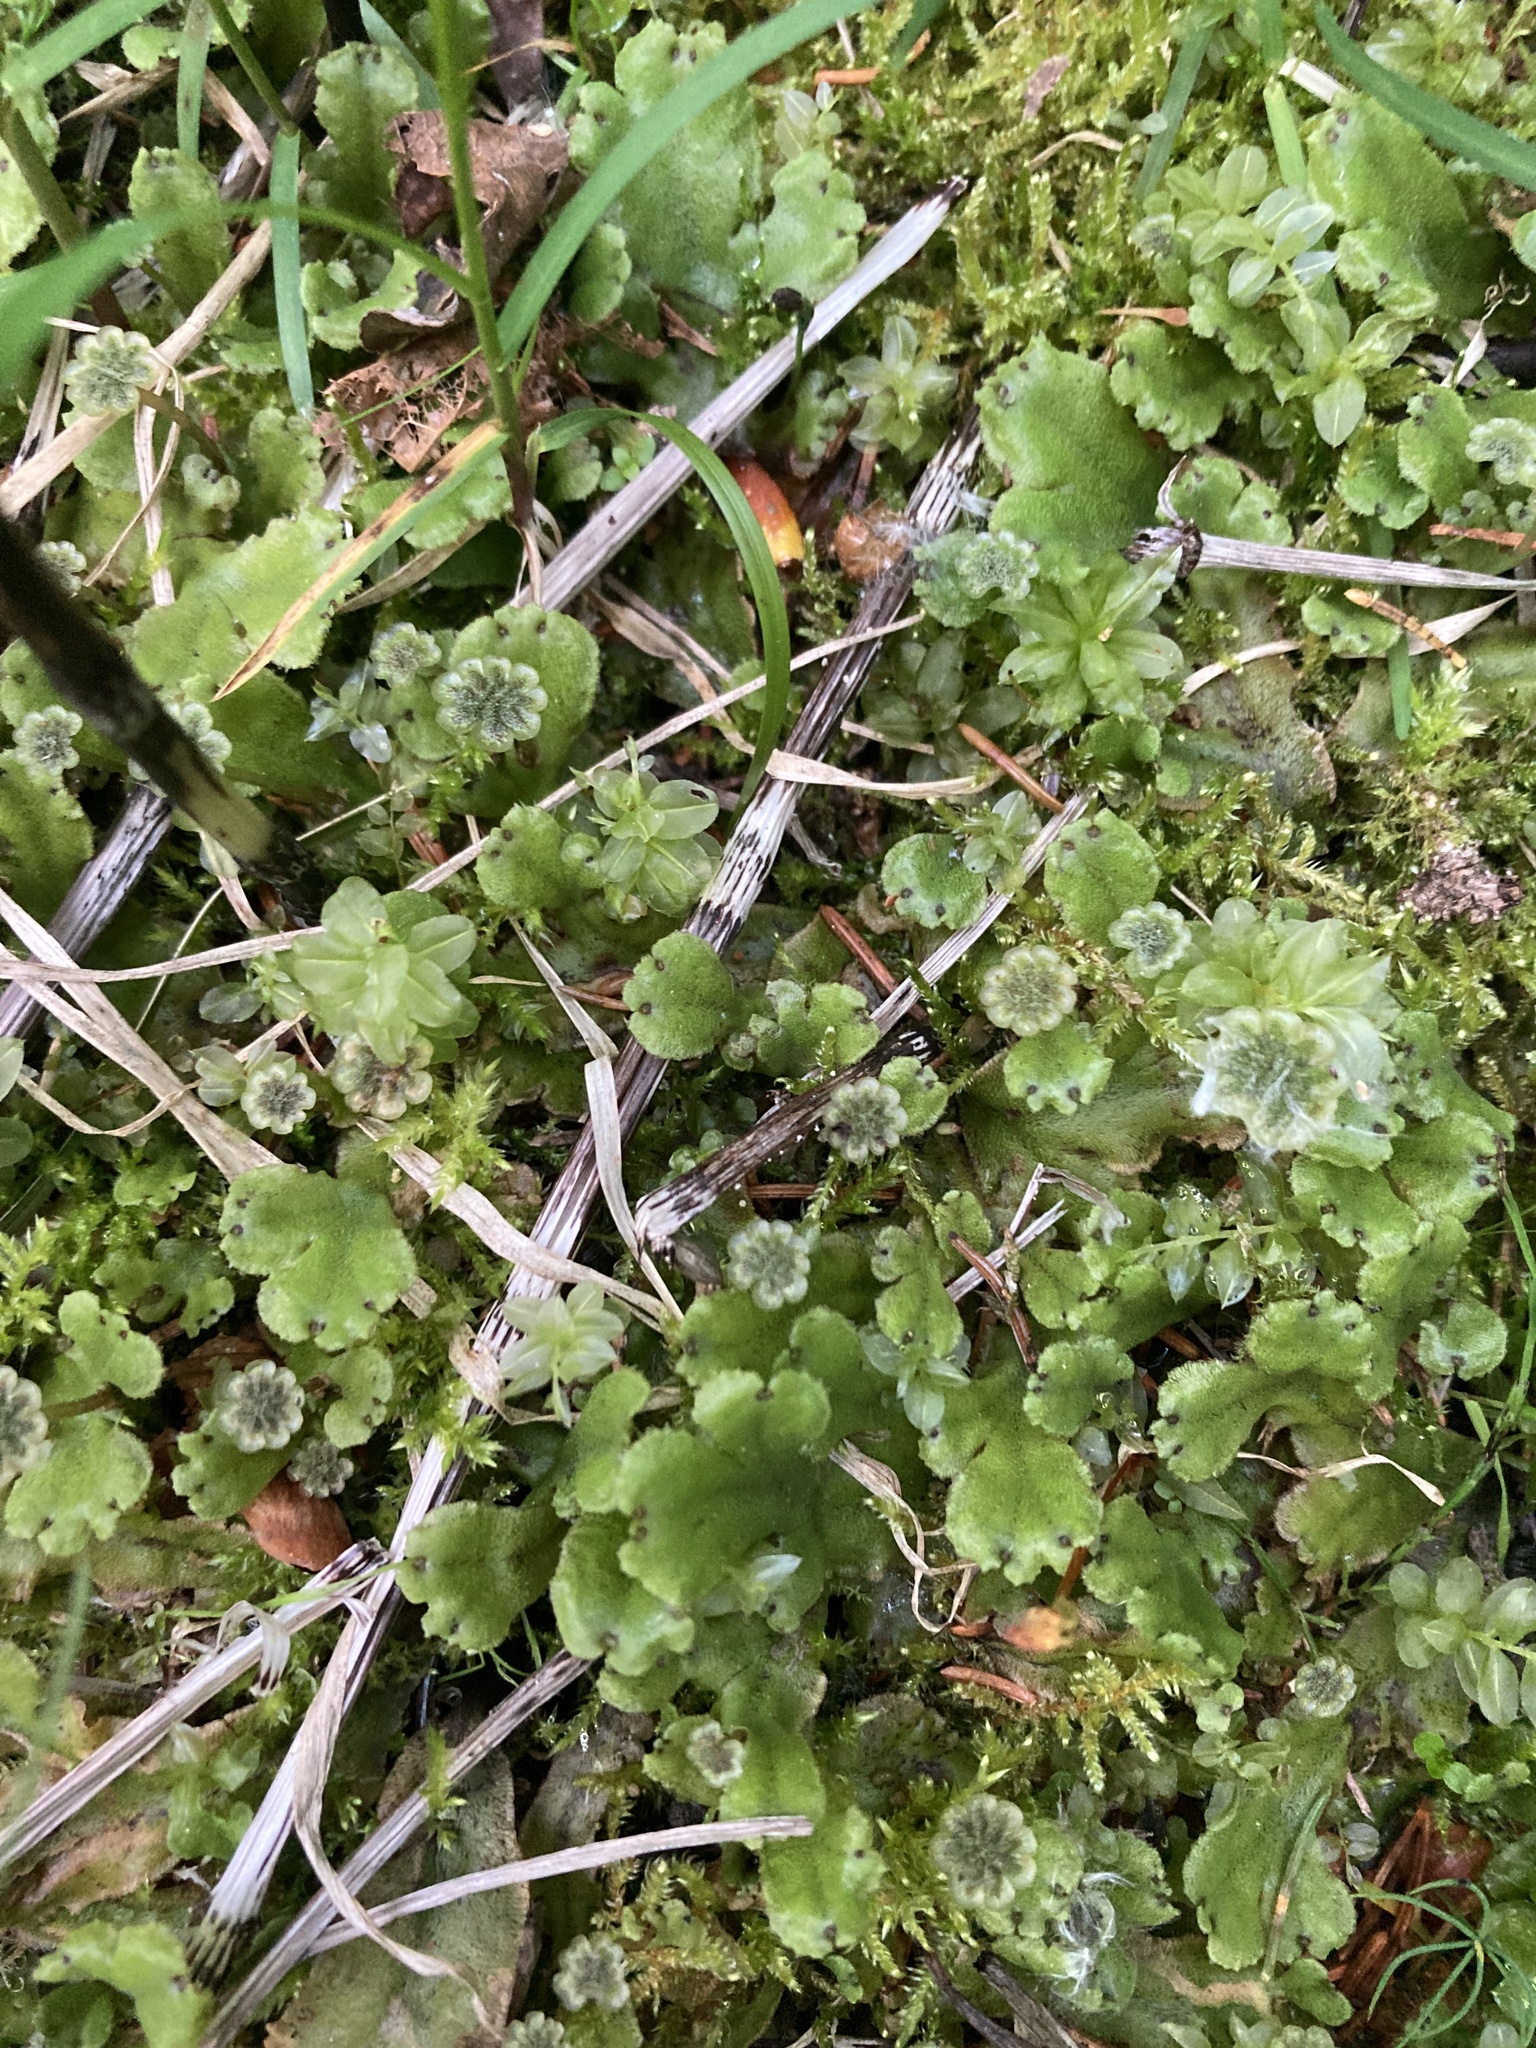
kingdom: Plantae
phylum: Marchantiophyta
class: Marchantiopsida
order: Marchantiales
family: Marchantiaceae
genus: Marchantia
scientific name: Marchantia polymorpha
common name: Common liverwort
